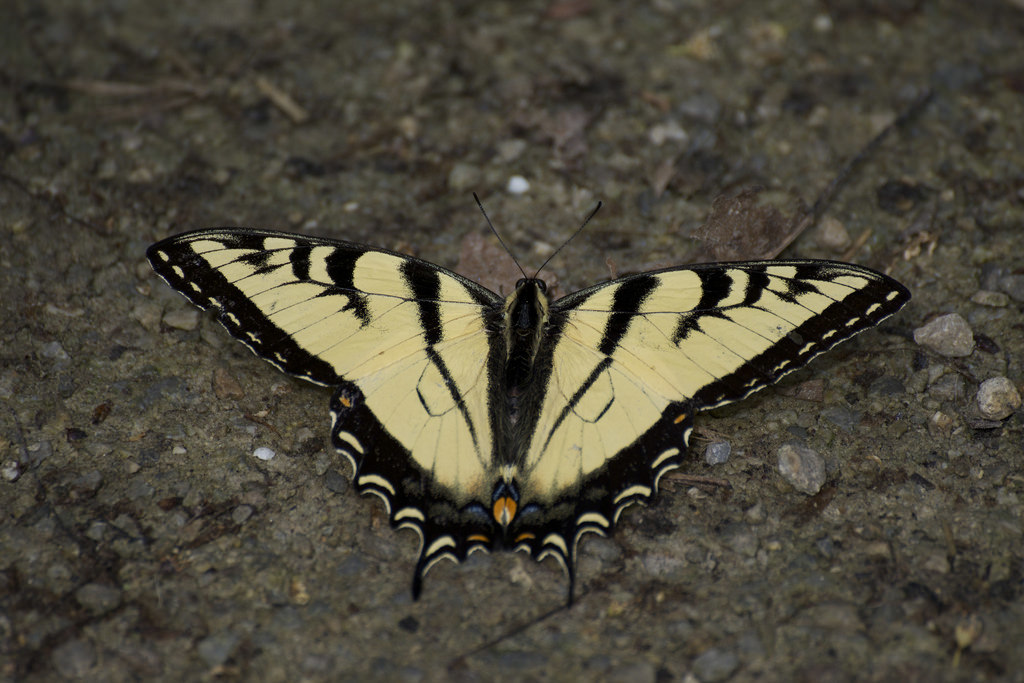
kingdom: Animalia
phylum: Arthropoda
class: Insecta
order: Lepidoptera
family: Papilionidae
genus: Papilio
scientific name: Papilio glaucus
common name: Tiger swallowtail
